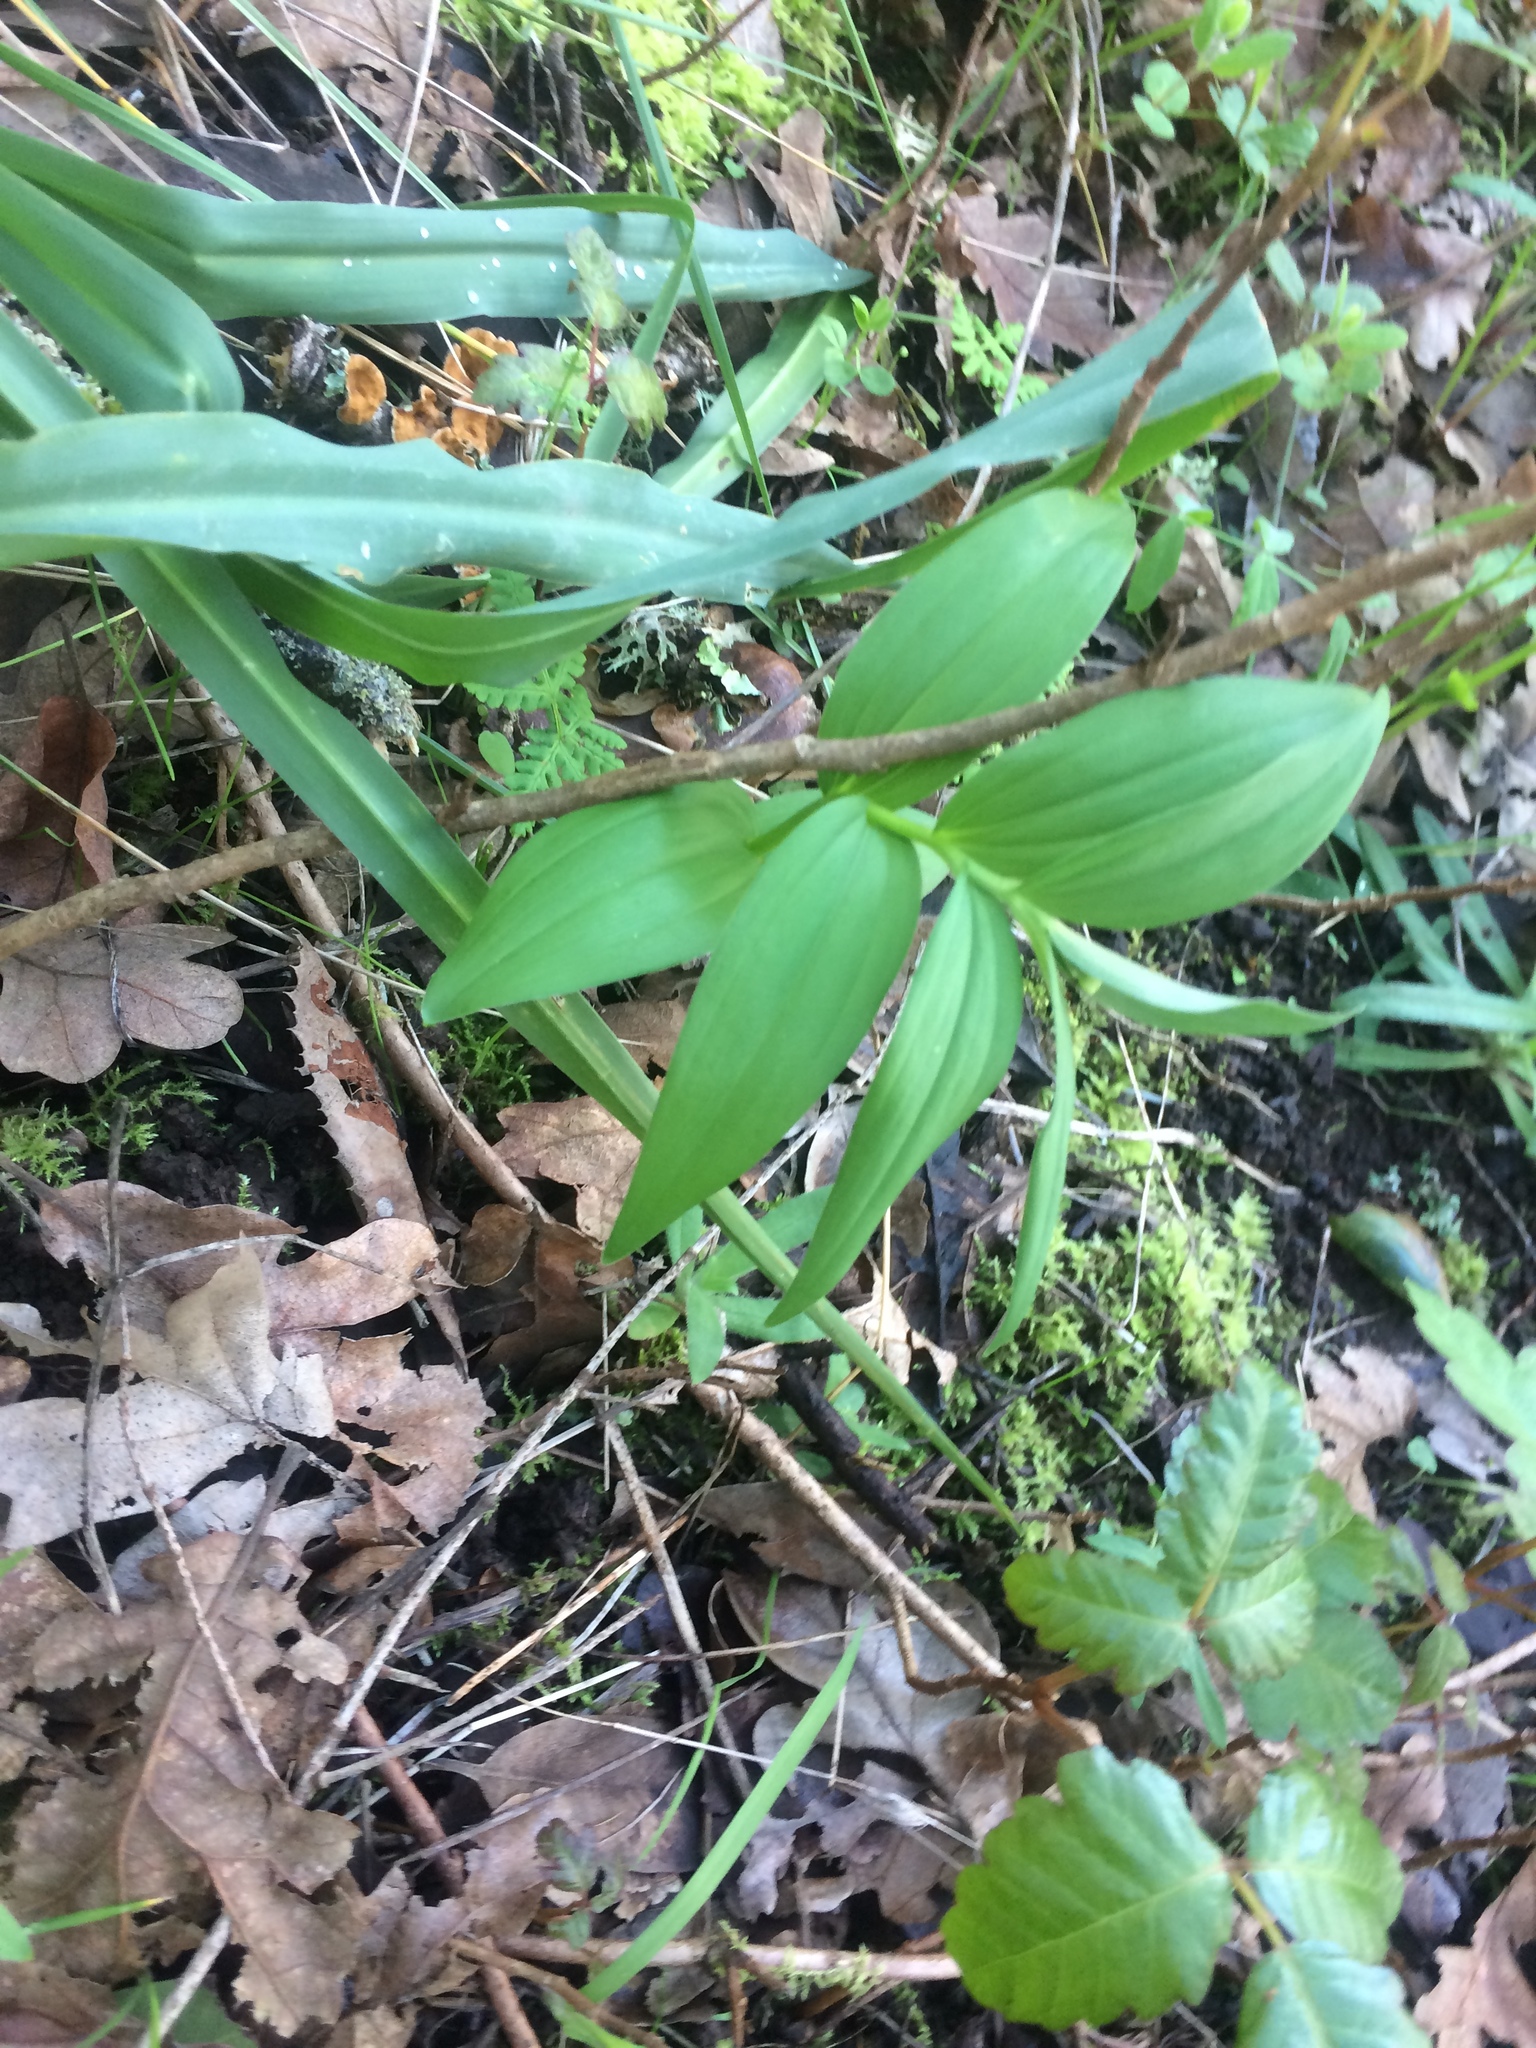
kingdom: Plantae
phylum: Tracheophyta
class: Liliopsida
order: Asparagales
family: Asparagaceae
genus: Maianthemum
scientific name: Maianthemum stellatum
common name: Little false solomon's seal
